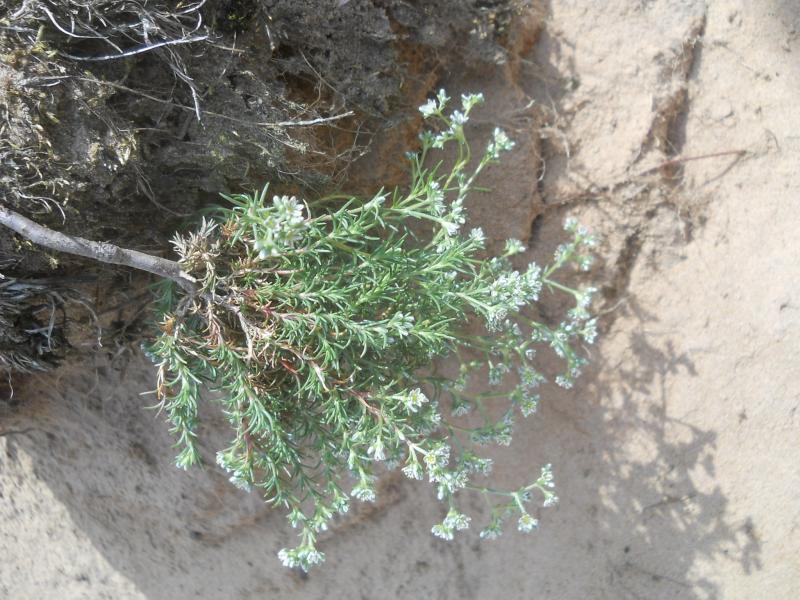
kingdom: Plantae
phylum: Tracheophyta
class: Magnoliopsida
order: Caryophyllales
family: Caryophyllaceae
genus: Scleranthus
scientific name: Scleranthus perennis
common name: Perennial knawel
